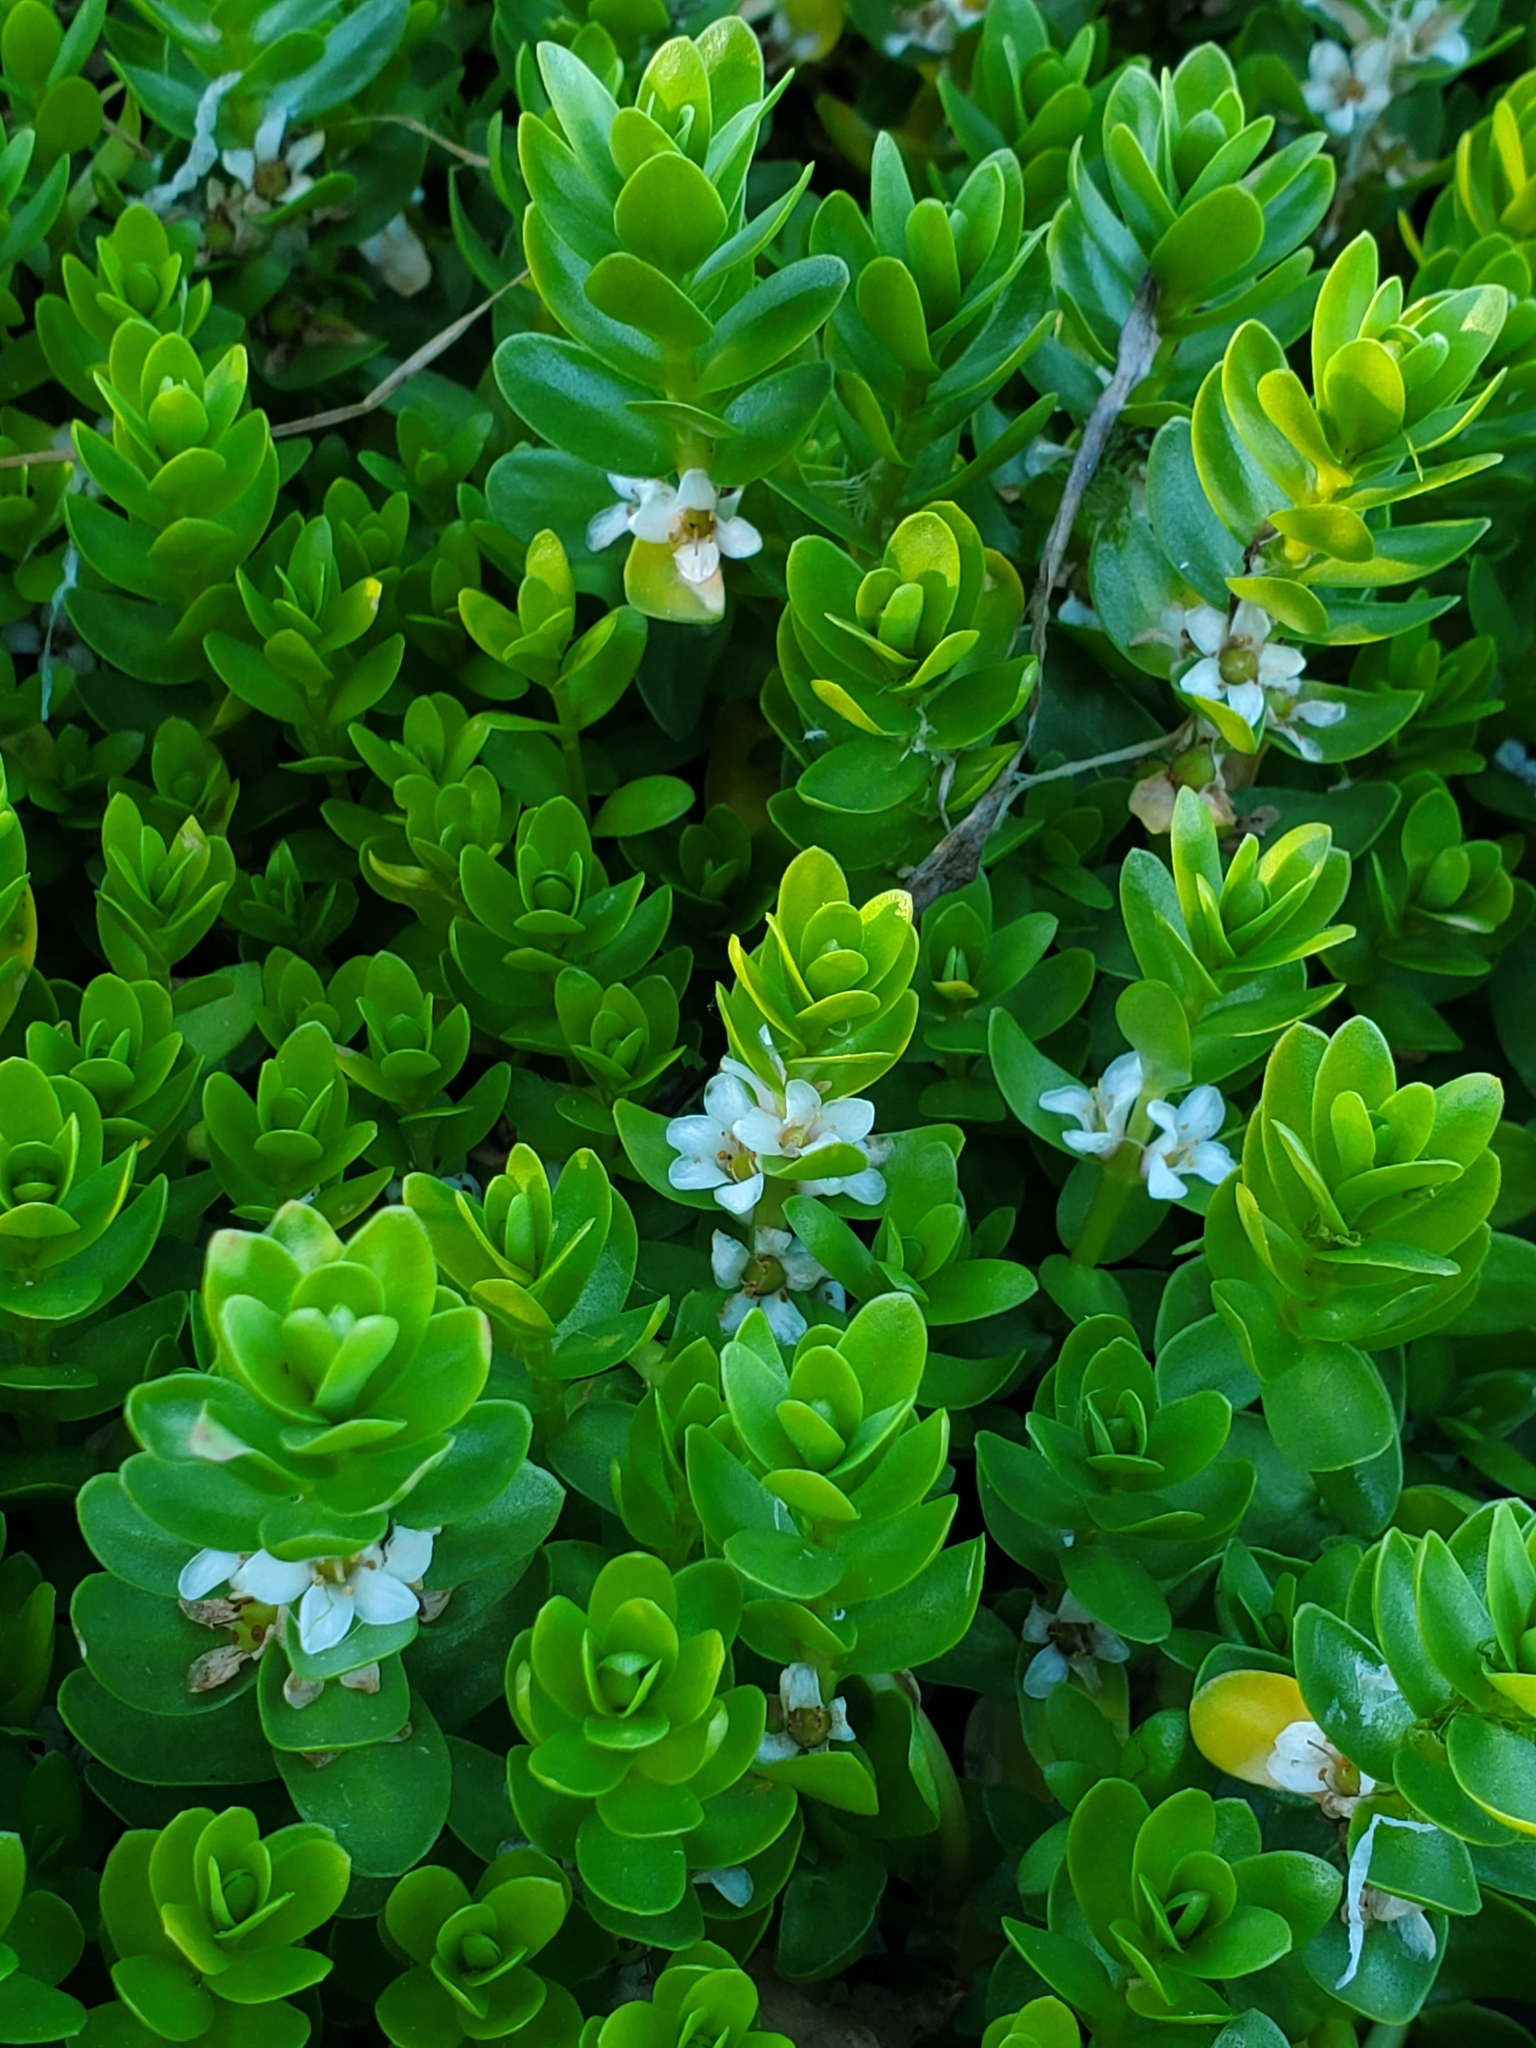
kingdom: Plantae
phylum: Tracheophyta
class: Magnoliopsida
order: Ericales
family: Primulaceae
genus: Lysimachia
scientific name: Lysimachia maritima
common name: Sea milkwort
